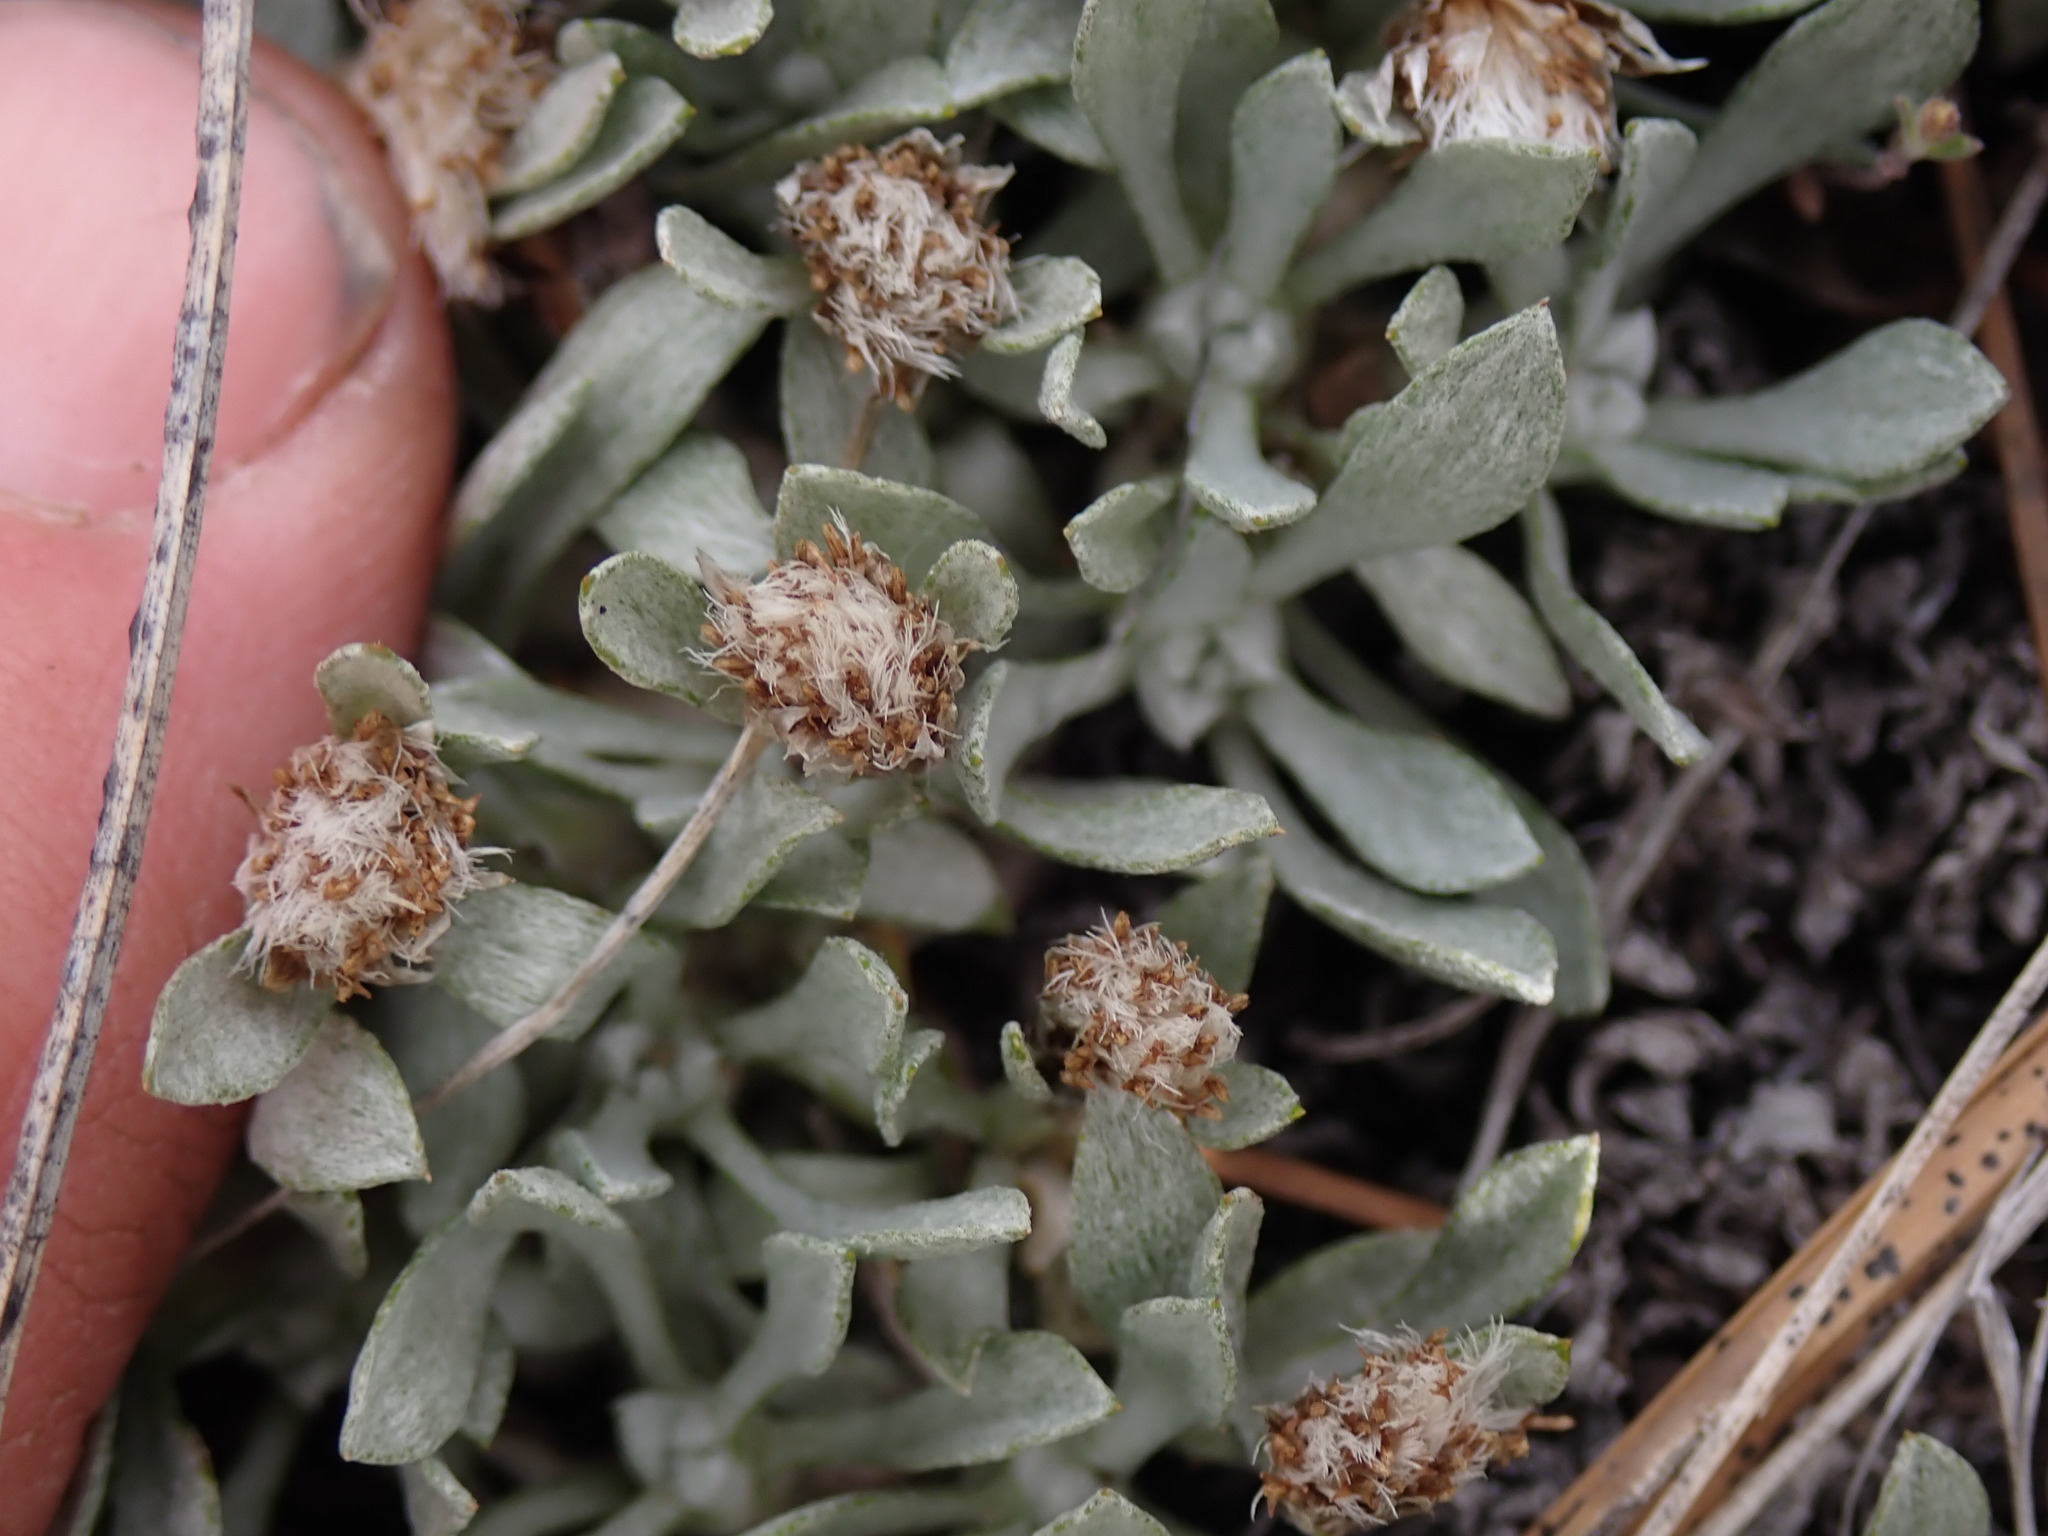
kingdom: Plantae
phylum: Tracheophyta
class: Magnoliopsida
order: Asterales
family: Asteraceae
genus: Antennaria
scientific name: Antennaria dimorpha
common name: Cushion pussytoes
